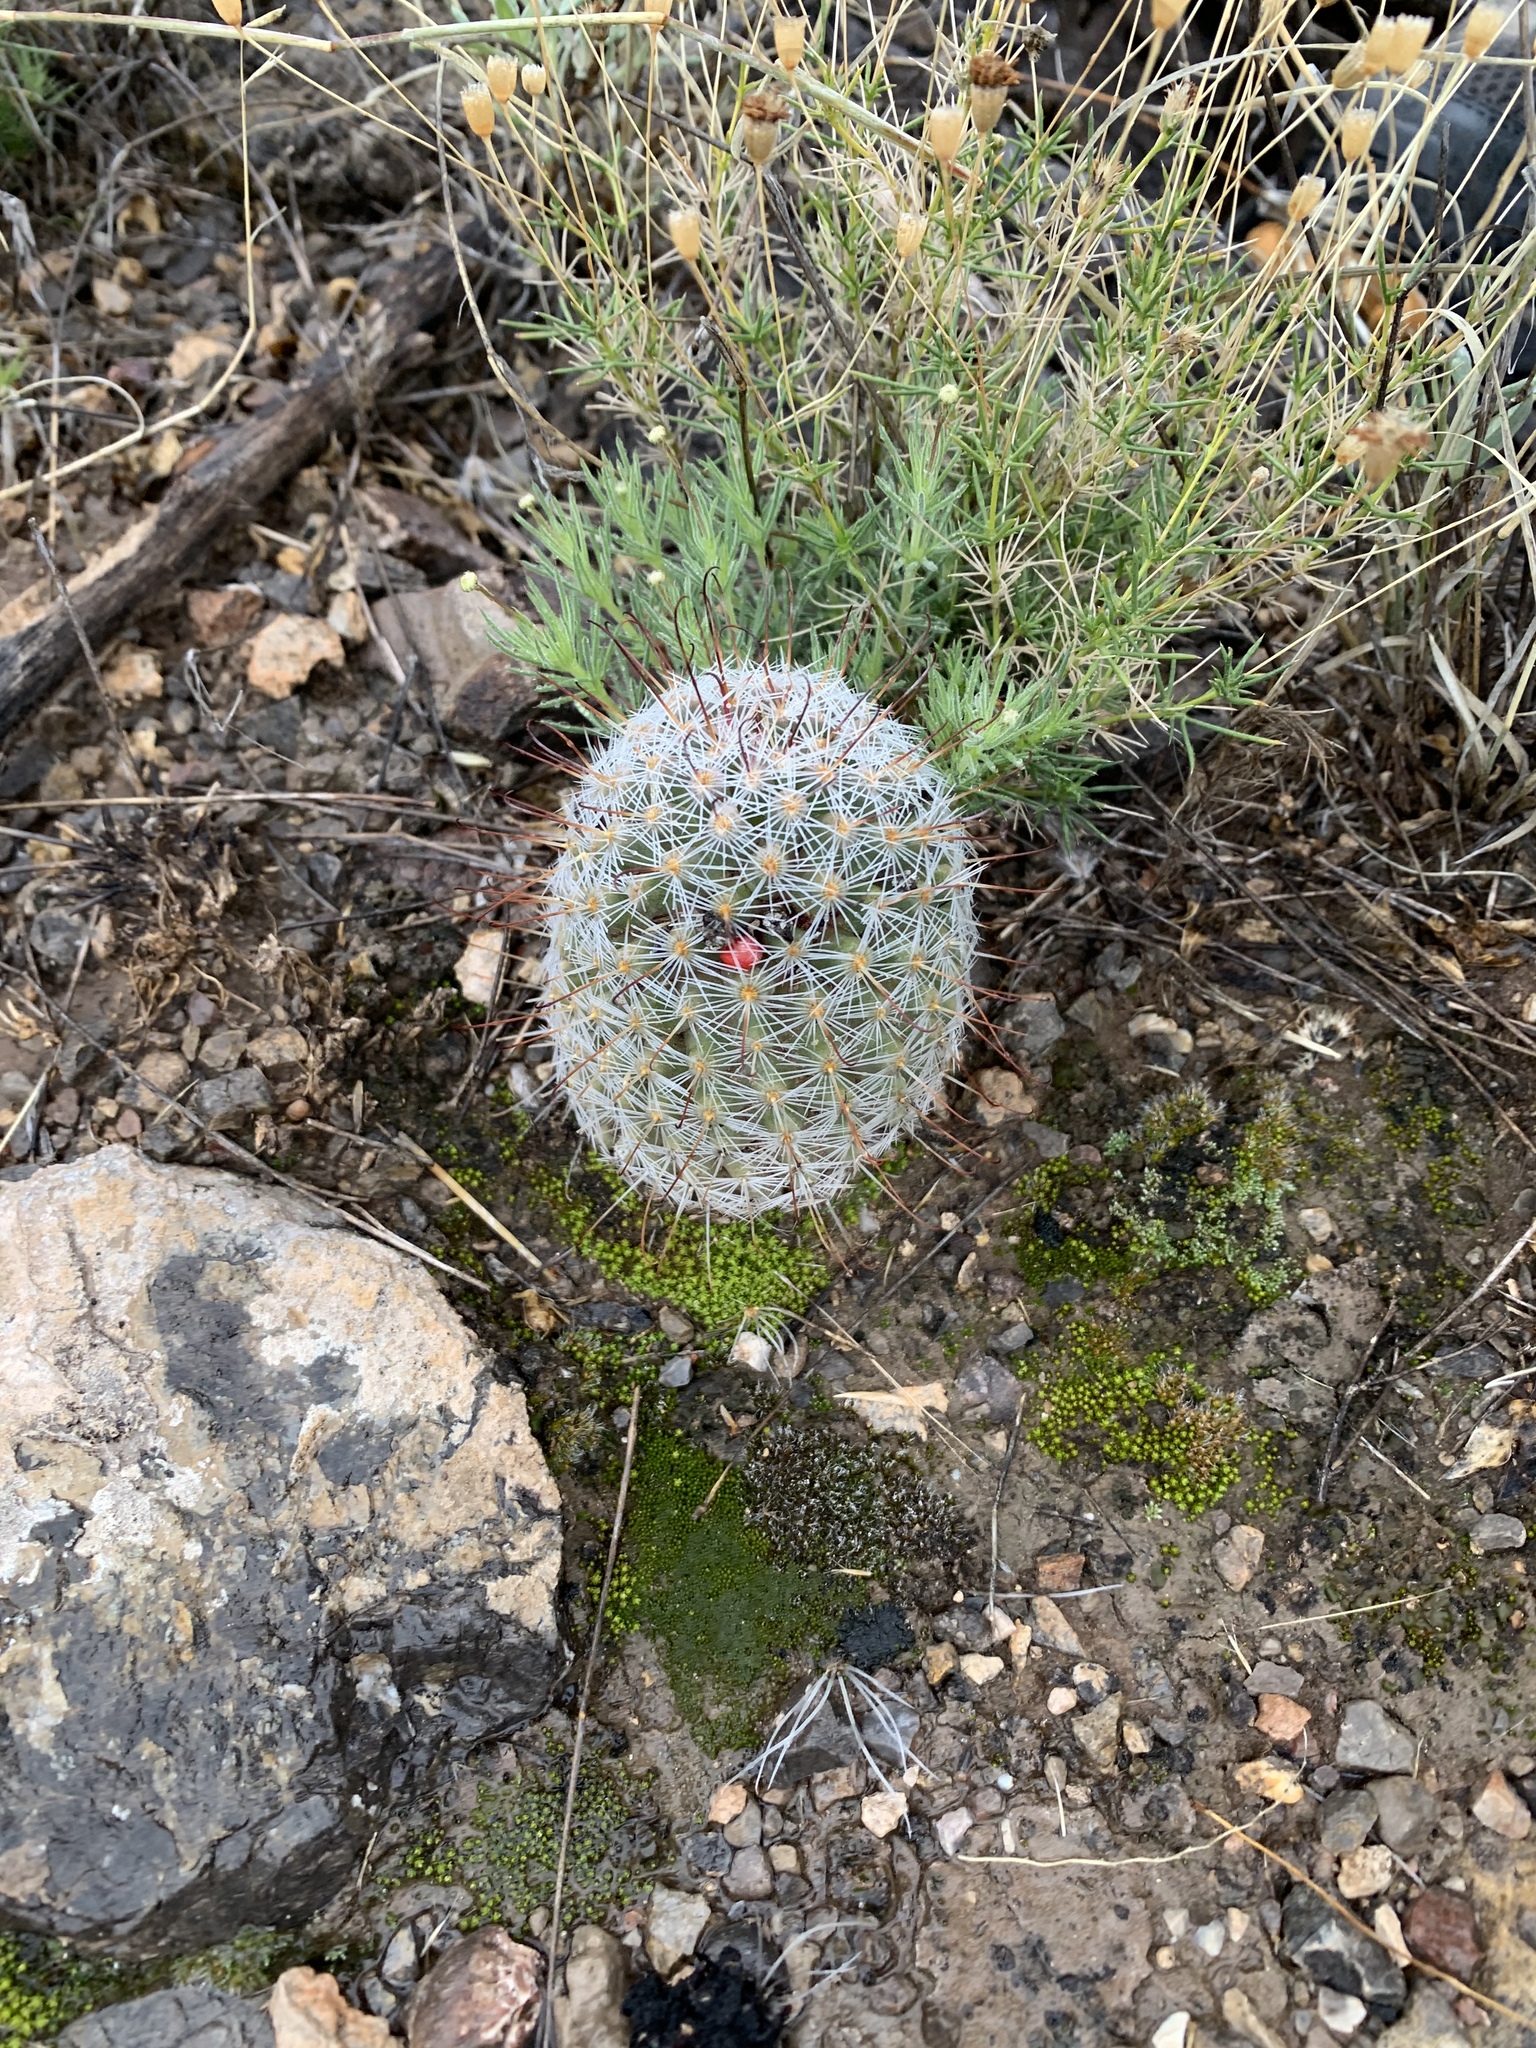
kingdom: Plantae
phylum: Tracheophyta
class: Magnoliopsida
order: Caryophyllales
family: Cactaceae
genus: Cochemiea
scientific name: Cochemiea grahamii
